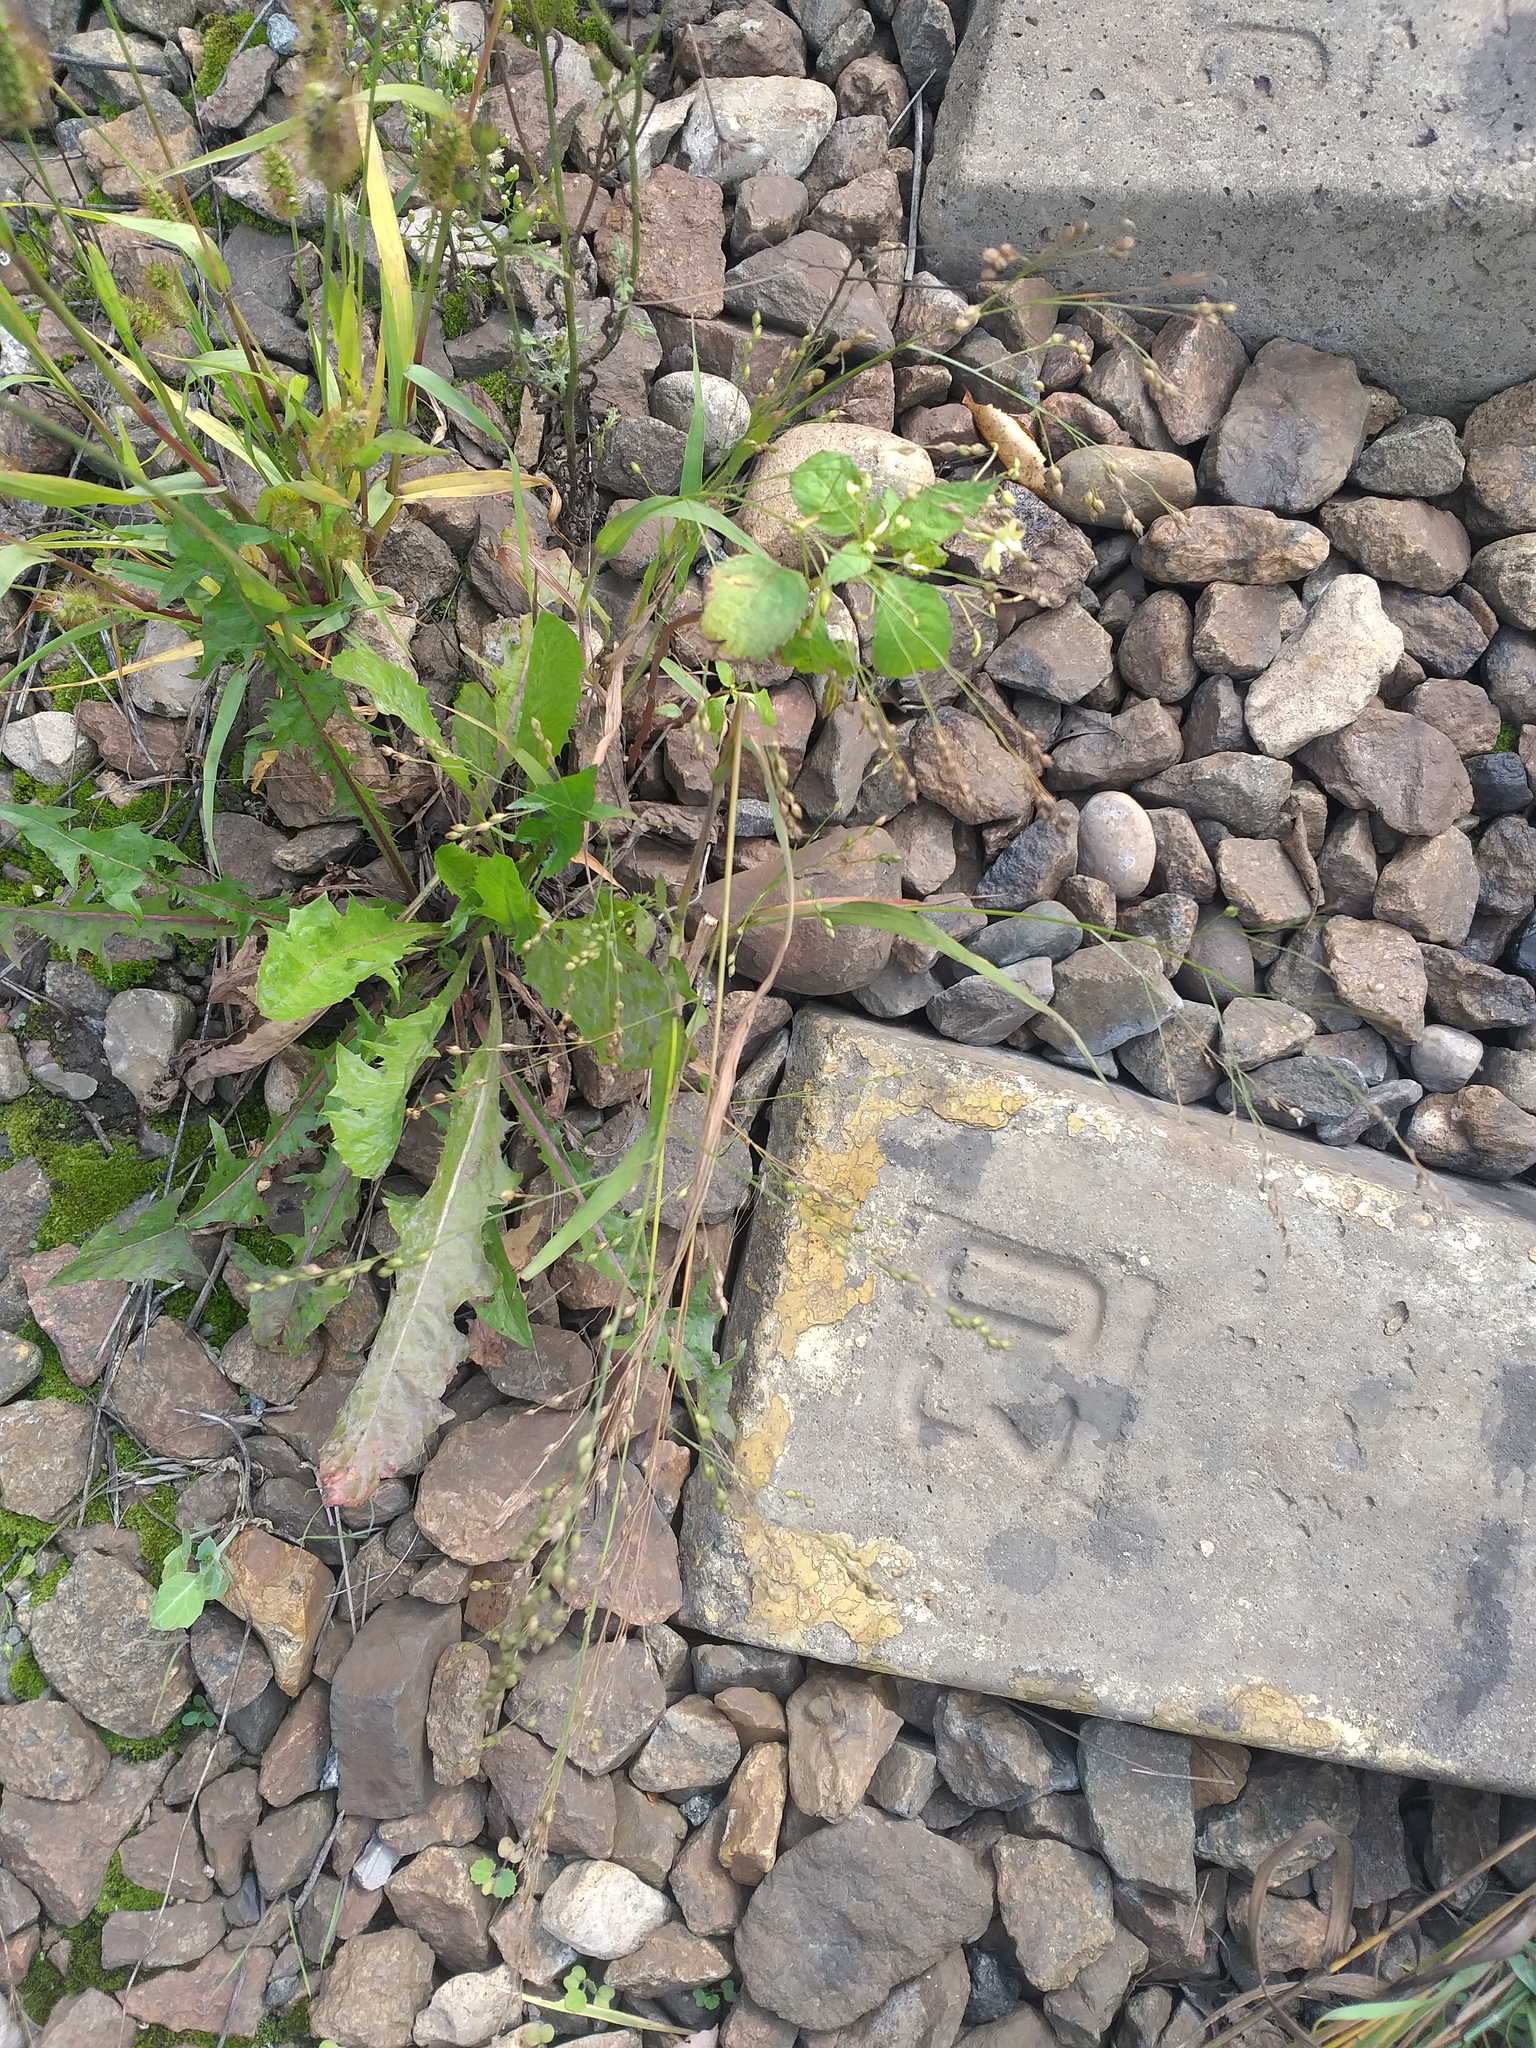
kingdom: Plantae
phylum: Tracheophyta
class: Liliopsida
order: Poales
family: Poaceae
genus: Panicum
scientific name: Panicum miliaceum
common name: Common millet
